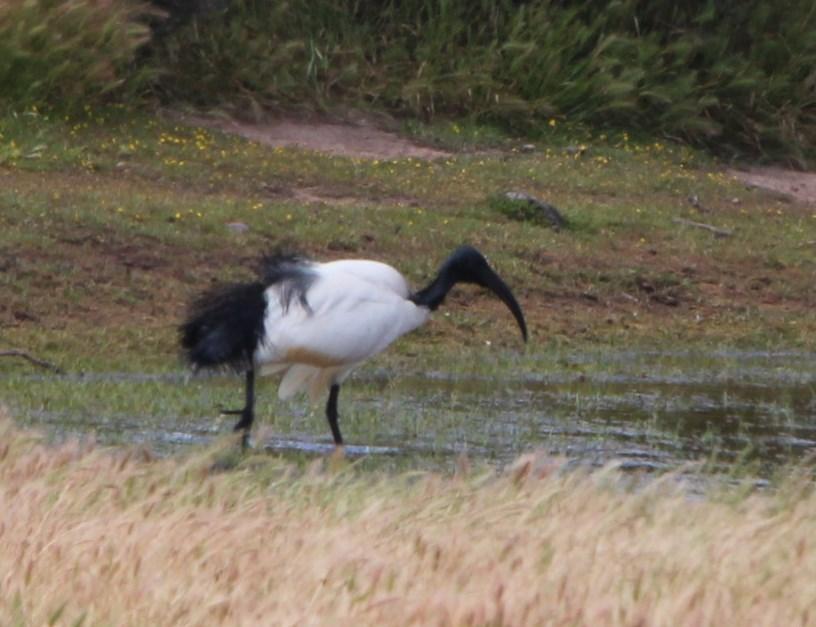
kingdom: Animalia
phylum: Chordata
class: Aves
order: Pelecaniformes
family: Threskiornithidae
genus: Threskiornis
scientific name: Threskiornis aethiopicus
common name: Sacred ibis
